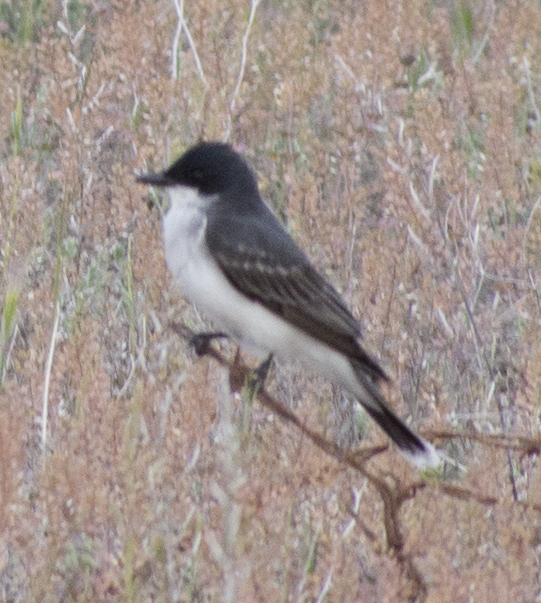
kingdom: Animalia
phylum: Chordata
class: Aves
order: Passeriformes
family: Tyrannidae
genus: Tyrannus
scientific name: Tyrannus tyrannus
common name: Eastern kingbird
